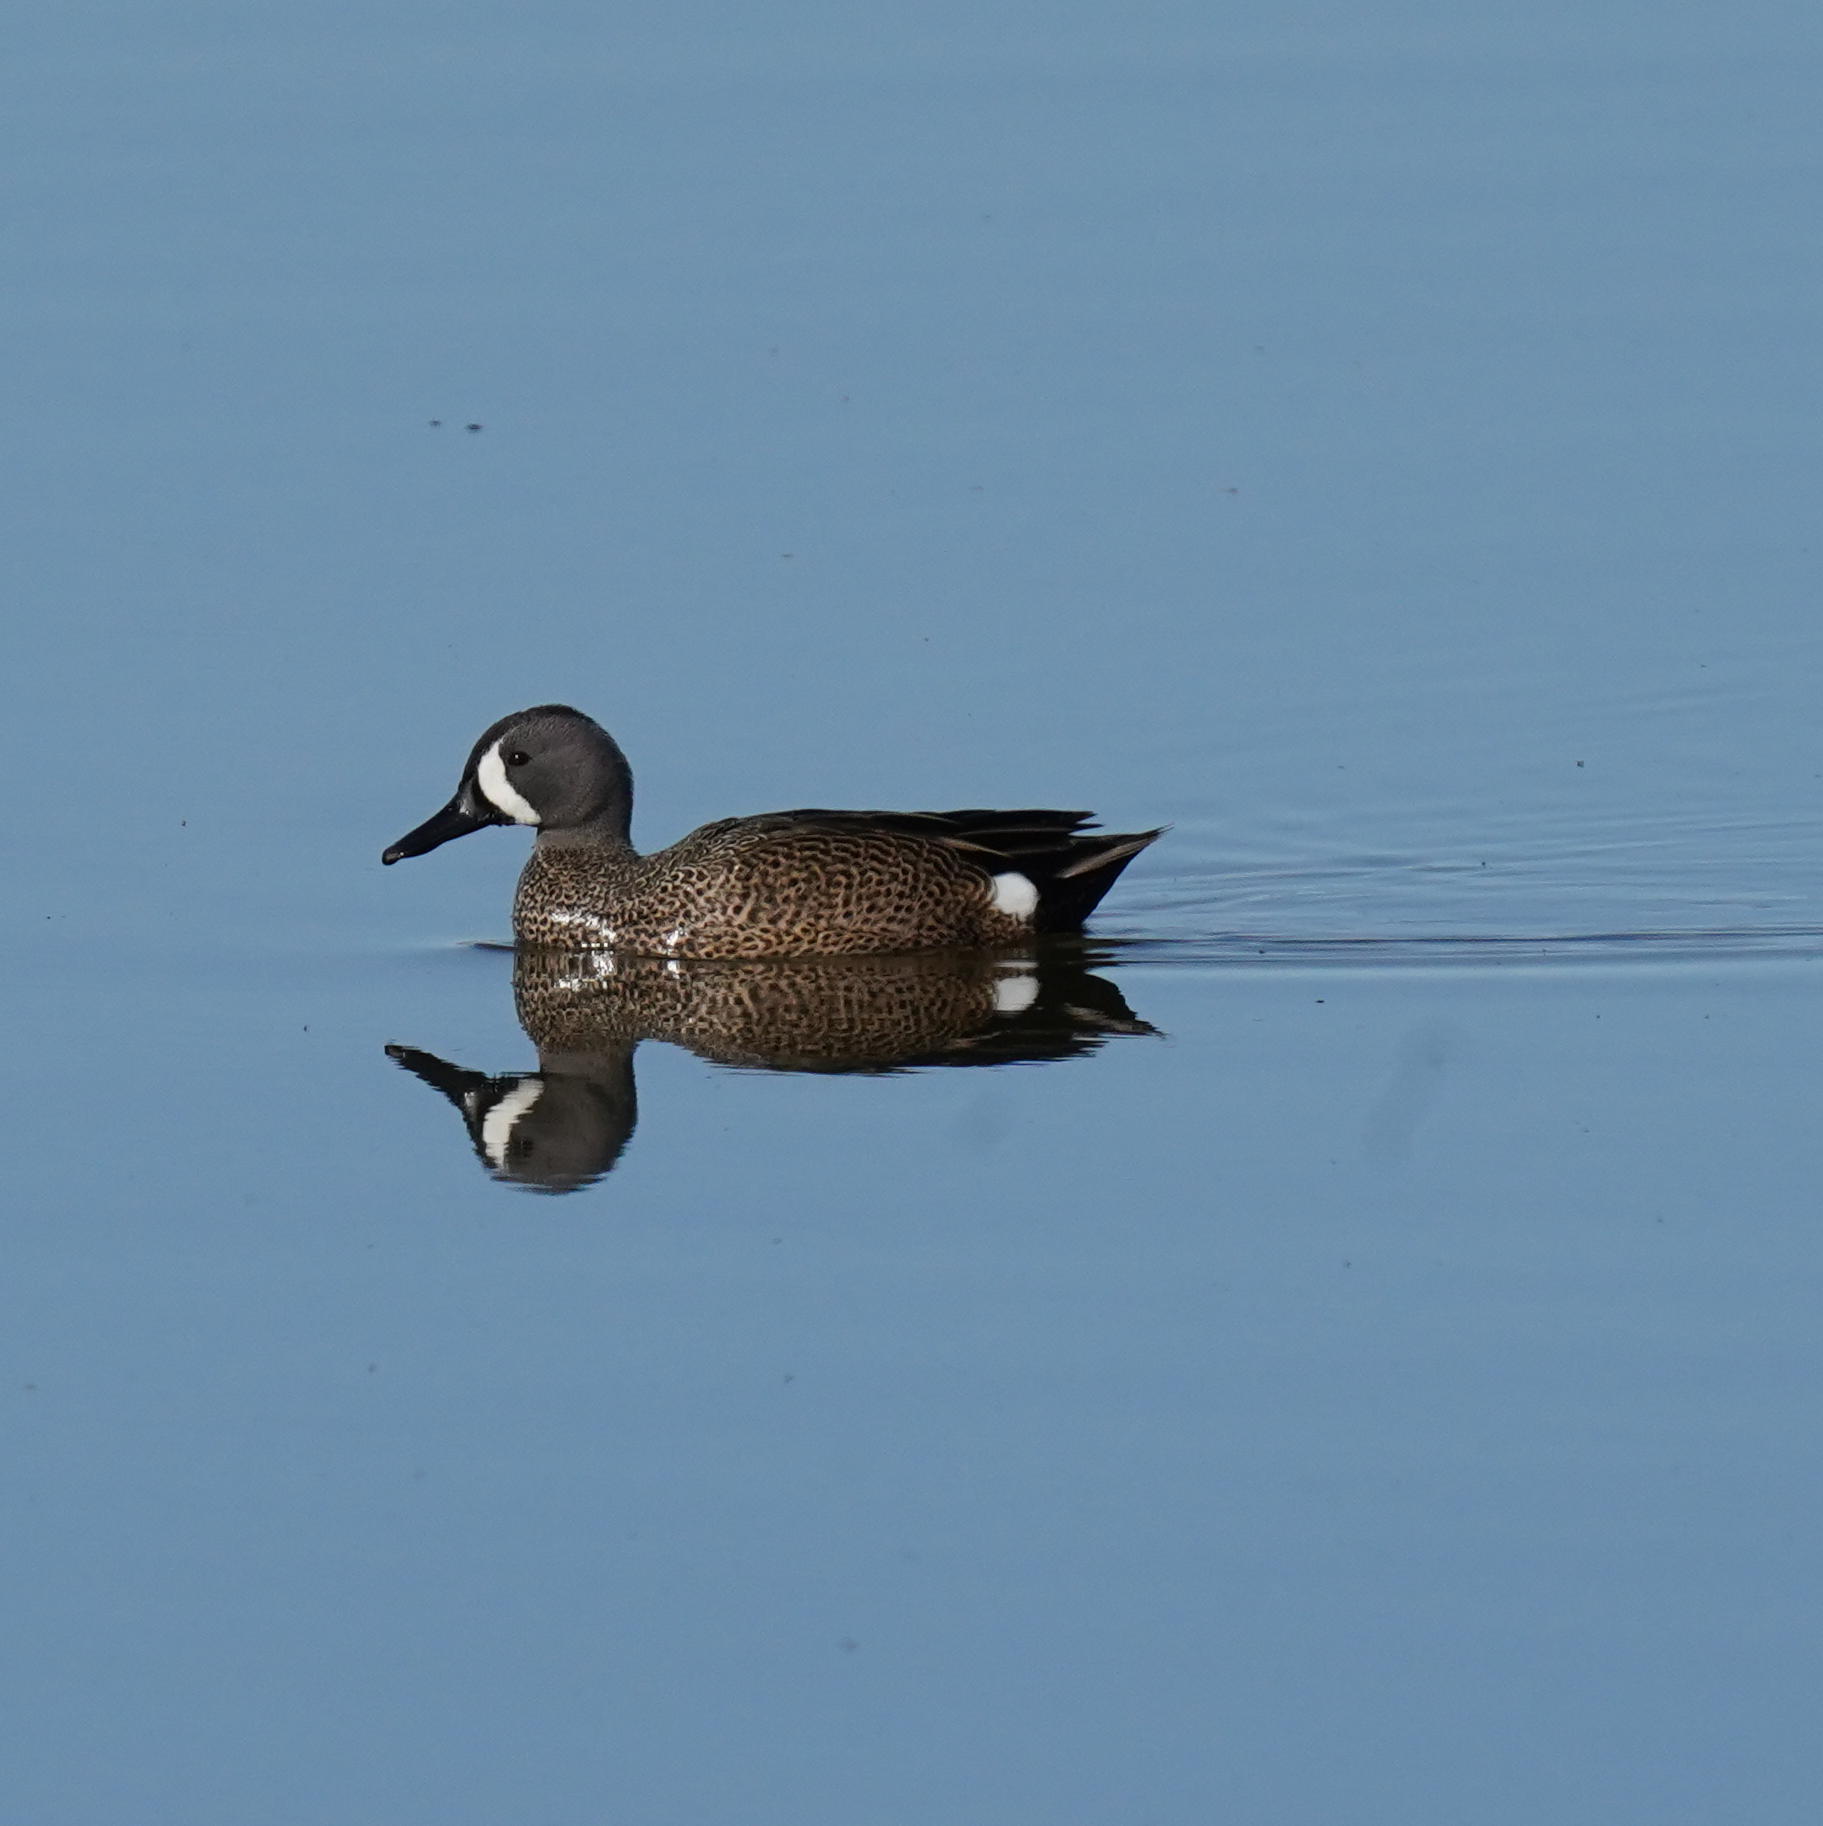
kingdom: Animalia
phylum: Chordata
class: Aves
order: Anseriformes
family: Anatidae
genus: Spatula
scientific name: Spatula discors
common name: Blue-winged teal
